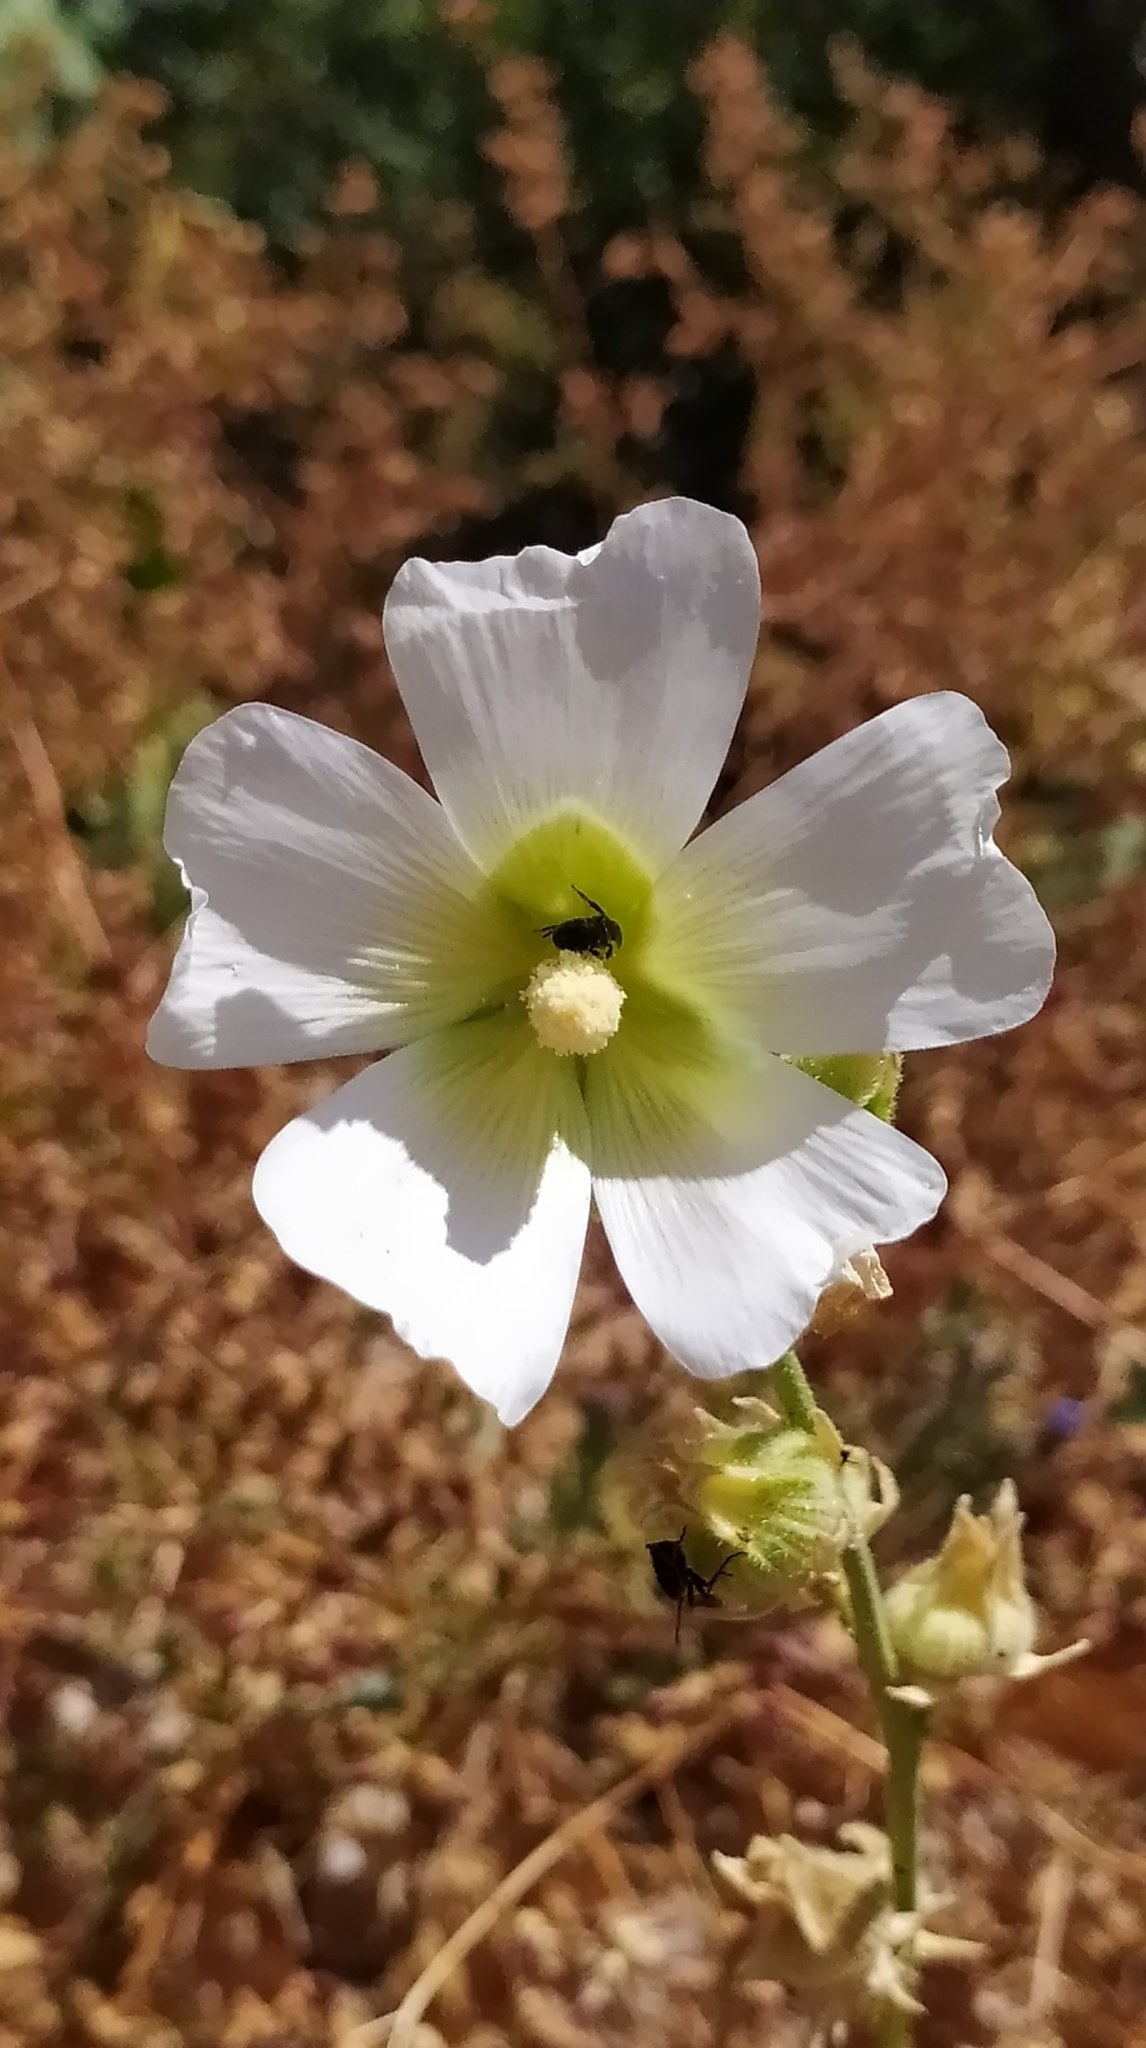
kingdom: Plantae
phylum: Tracheophyta
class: Magnoliopsida
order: Malvales
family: Malvaceae
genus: Alcea
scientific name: Alcea nudiflora
